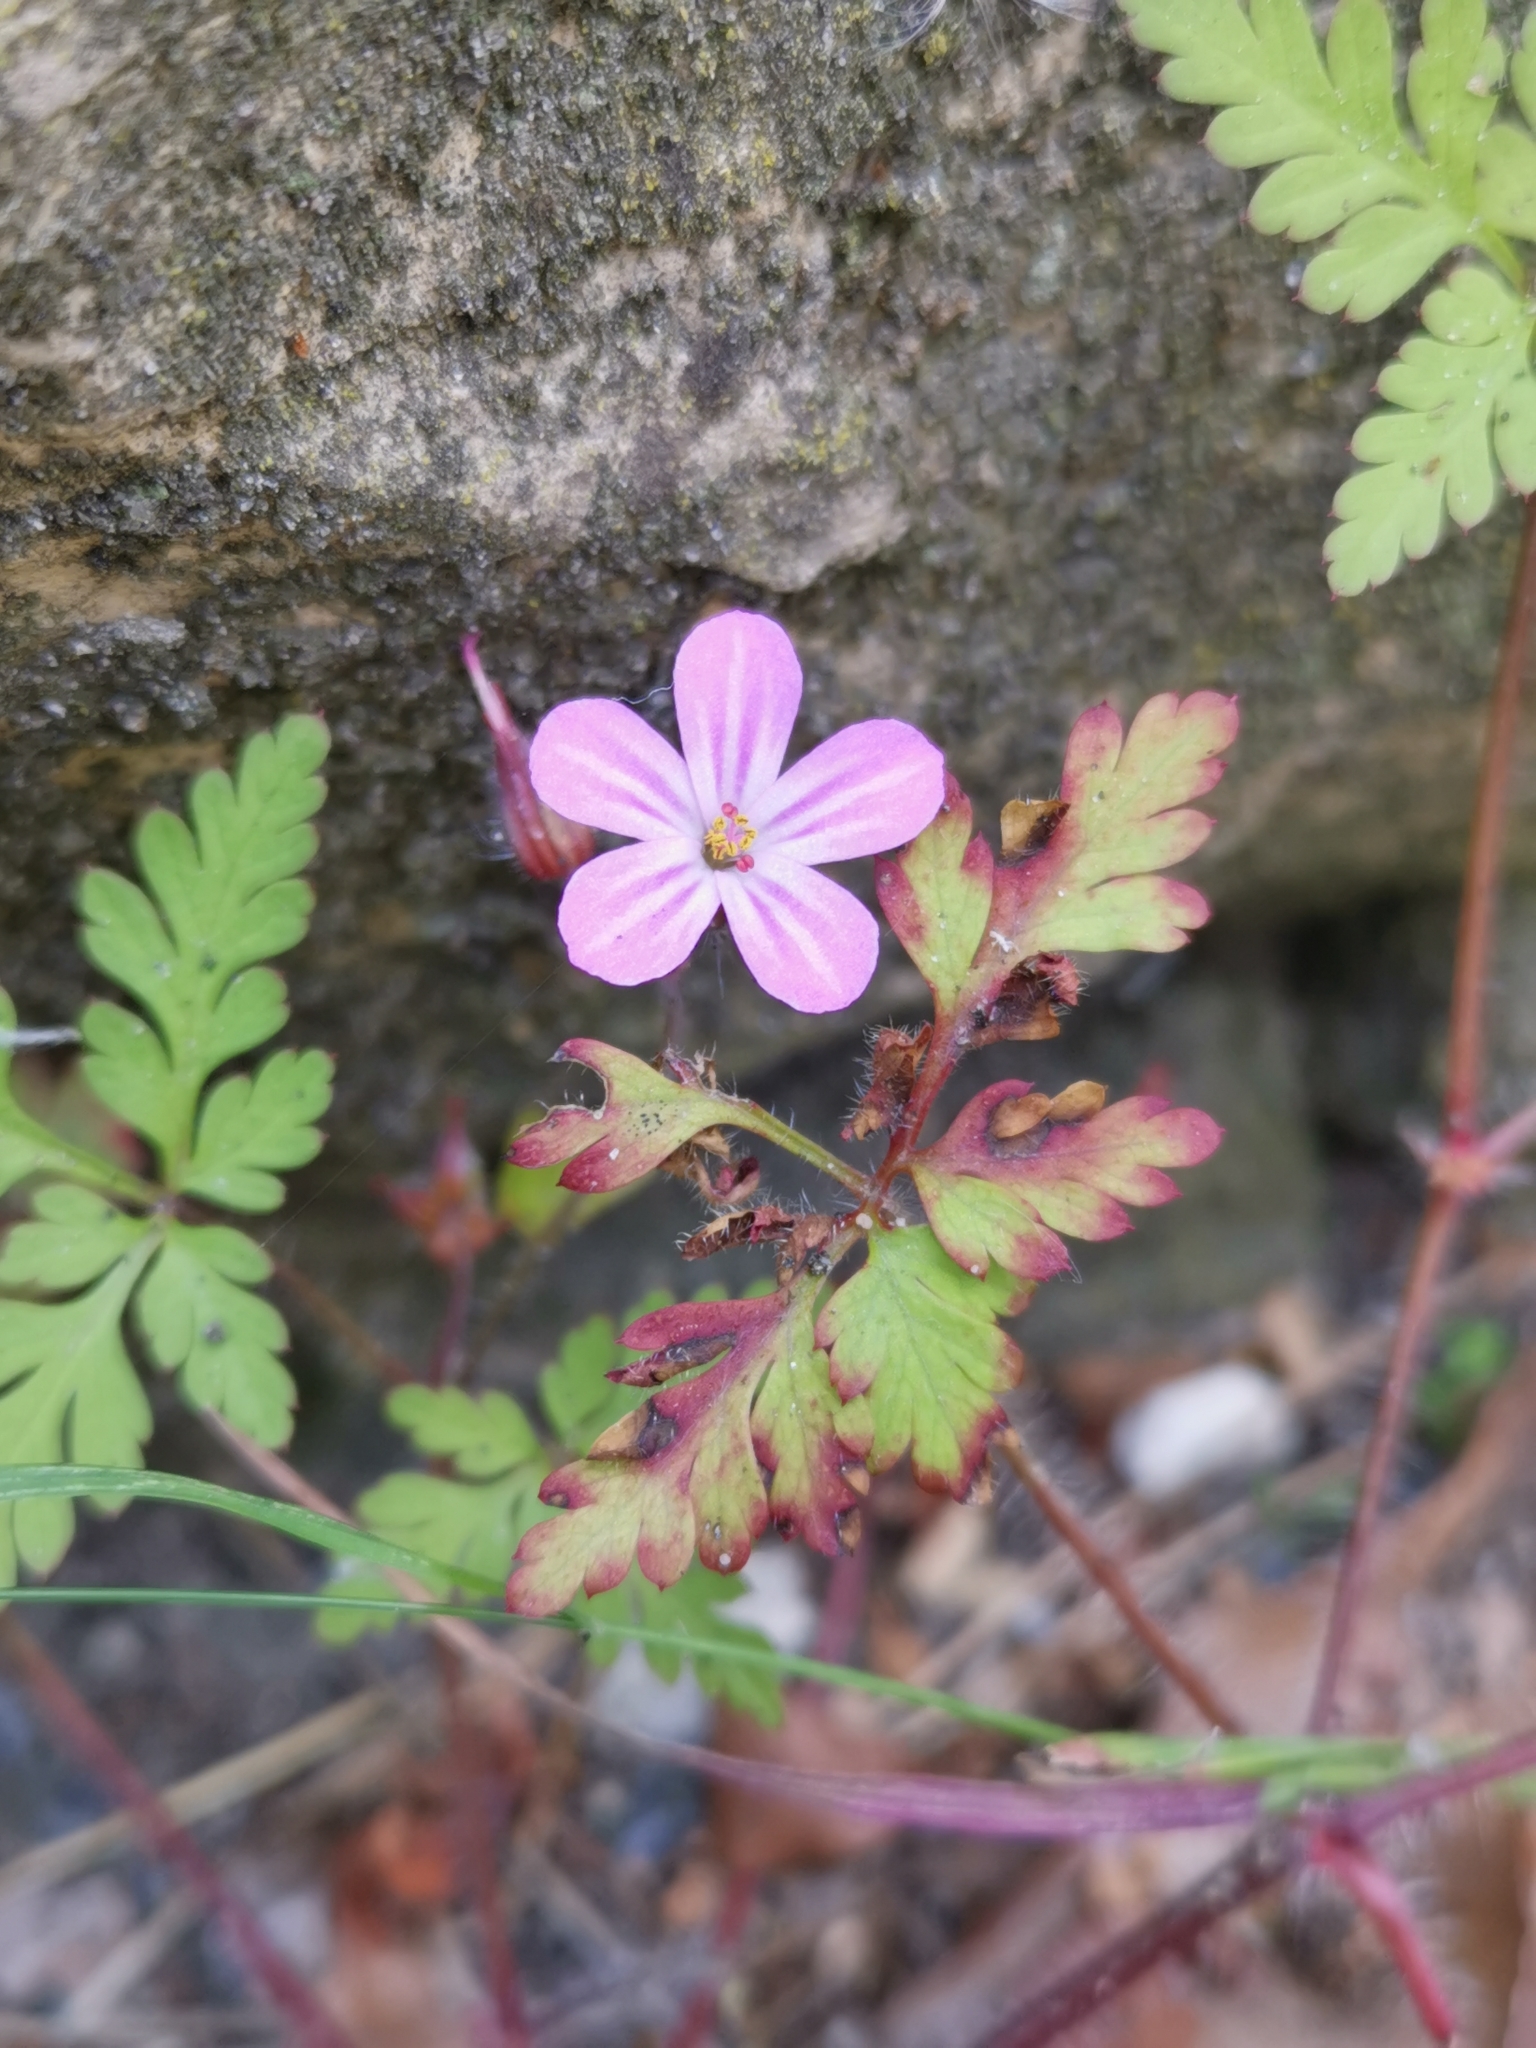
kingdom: Plantae
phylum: Tracheophyta
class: Magnoliopsida
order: Geraniales
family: Geraniaceae
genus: Geranium
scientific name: Geranium robertianum
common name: Herb-robert
